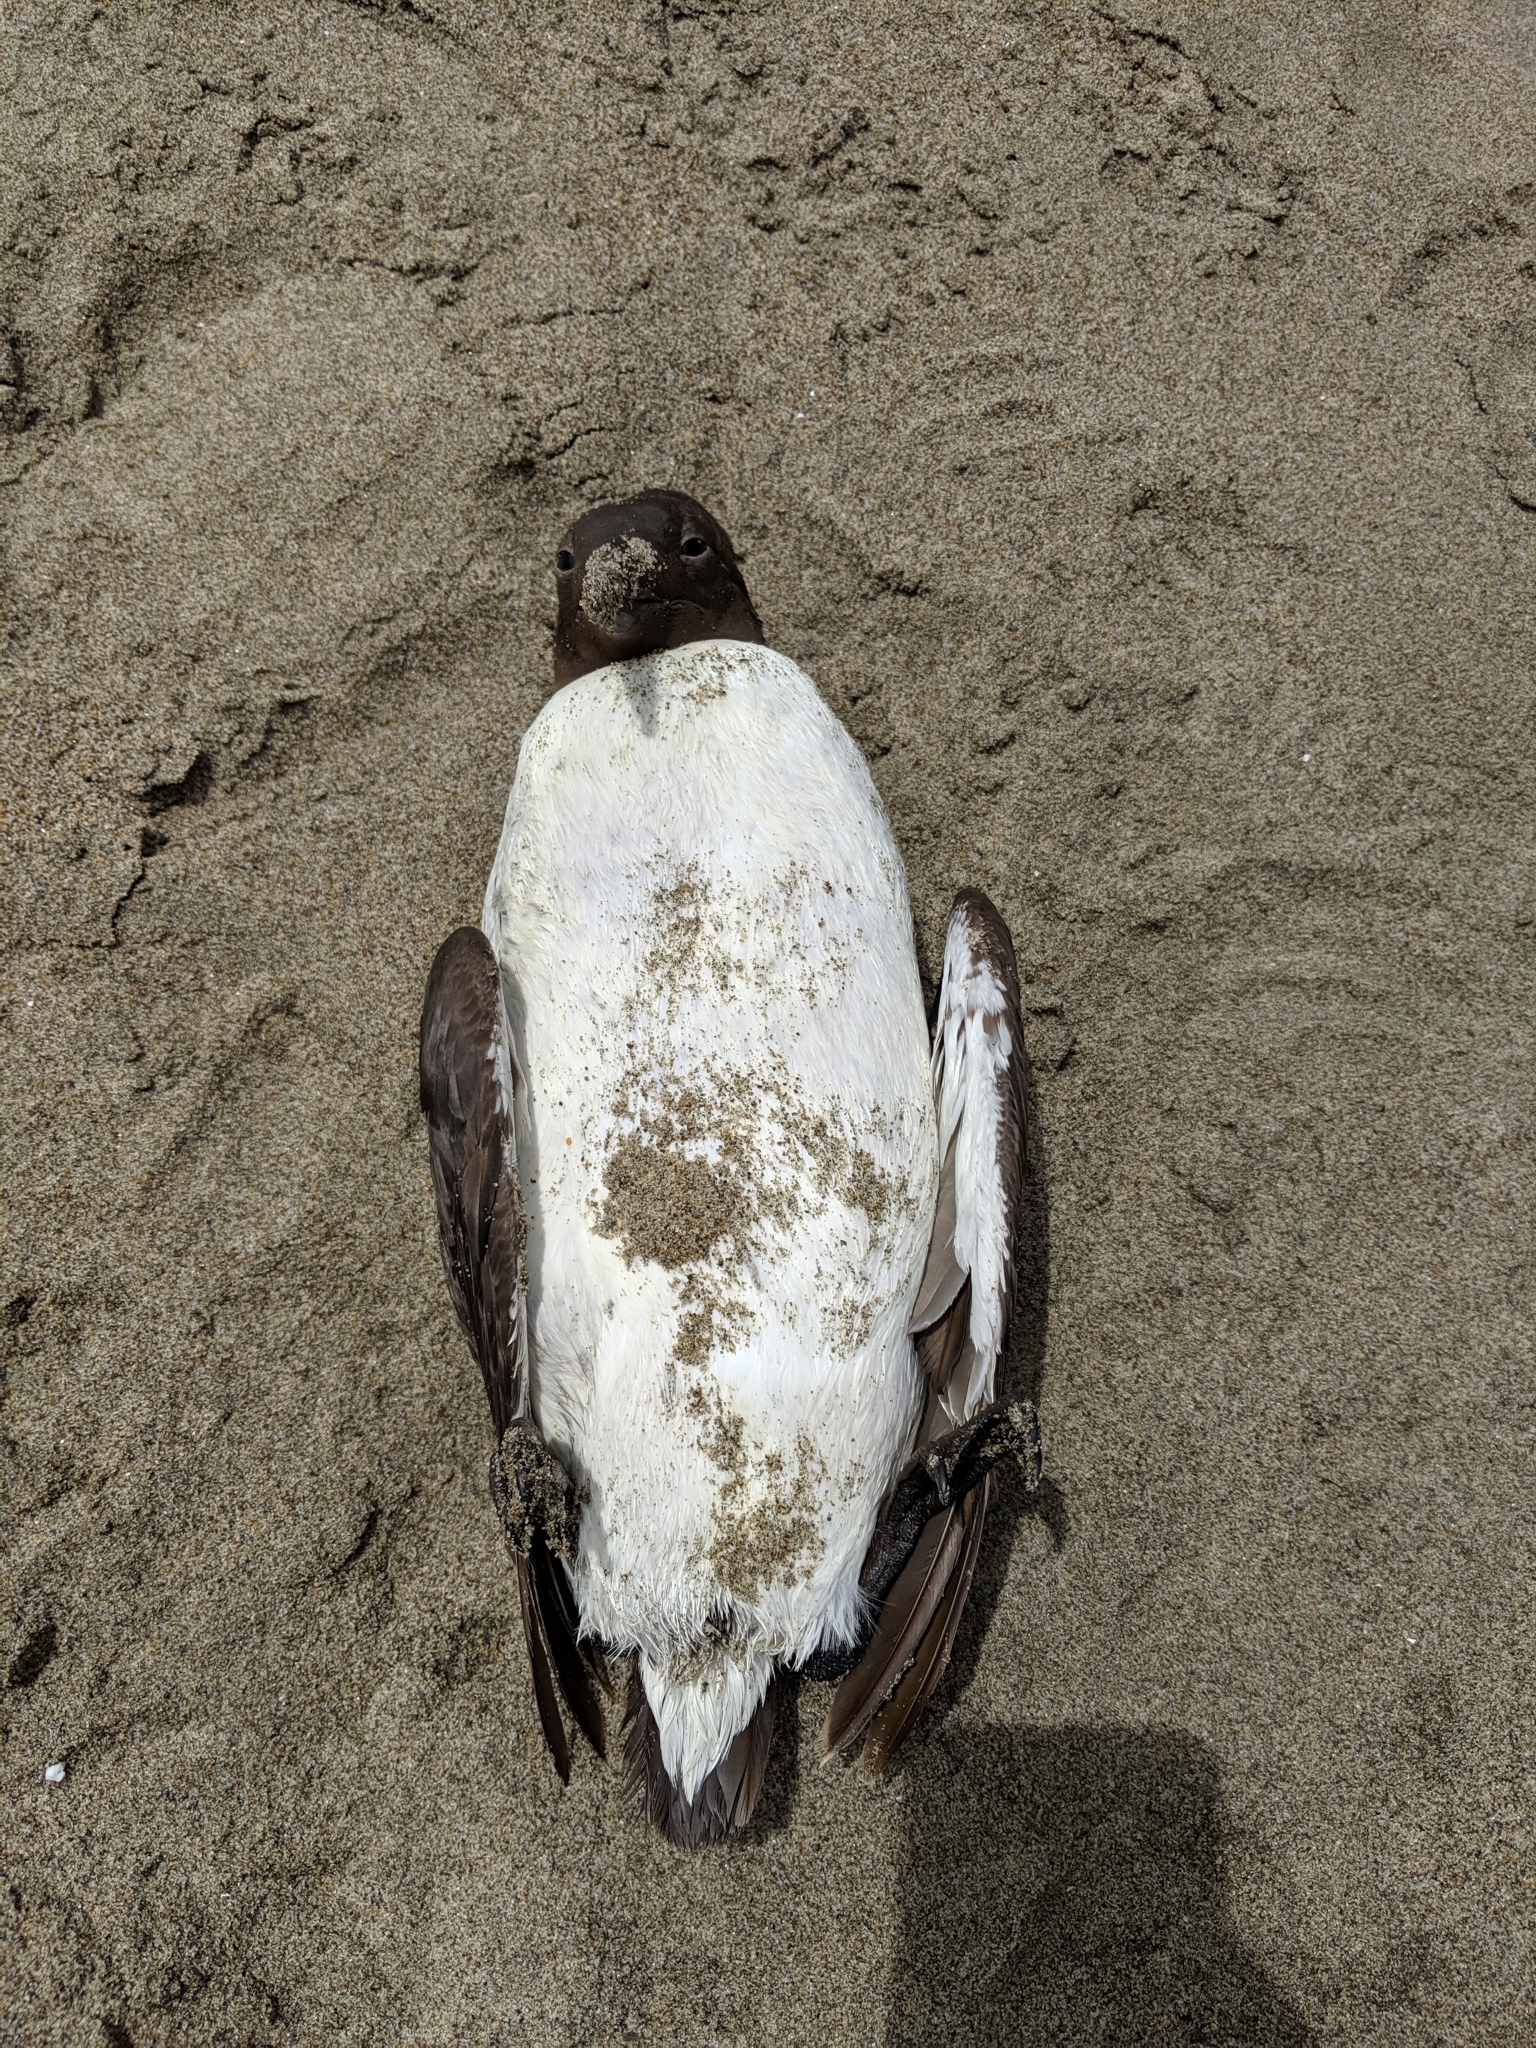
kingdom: Animalia
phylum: Chordata
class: Aves
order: Charadriiformes
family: Alcidae
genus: Uria
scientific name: Uria aalge
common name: Common murre
